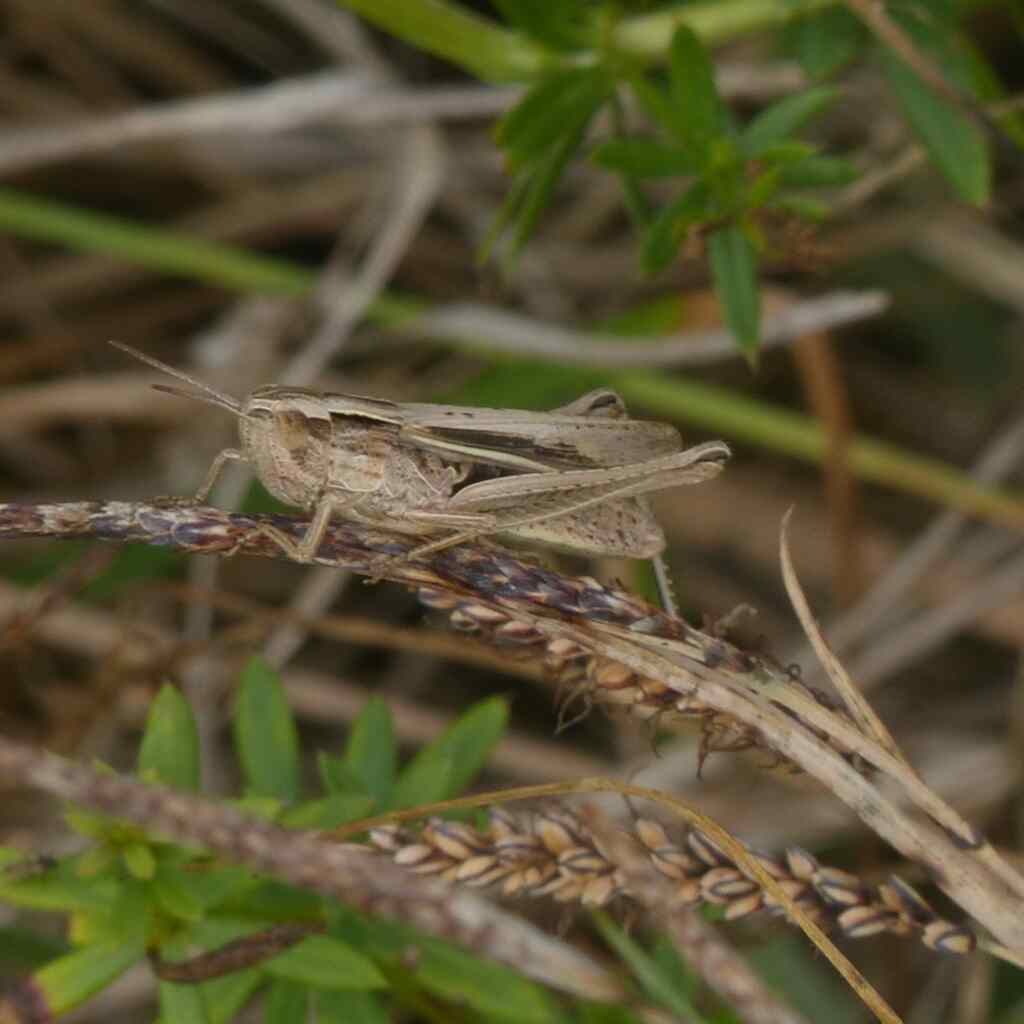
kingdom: Animalia
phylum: Arthropoda
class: Insecta
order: Orthoptera
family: Acrididae
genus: Chorthippus
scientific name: Chorthippus albomarginatus
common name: Lesser marsh grasshopper
